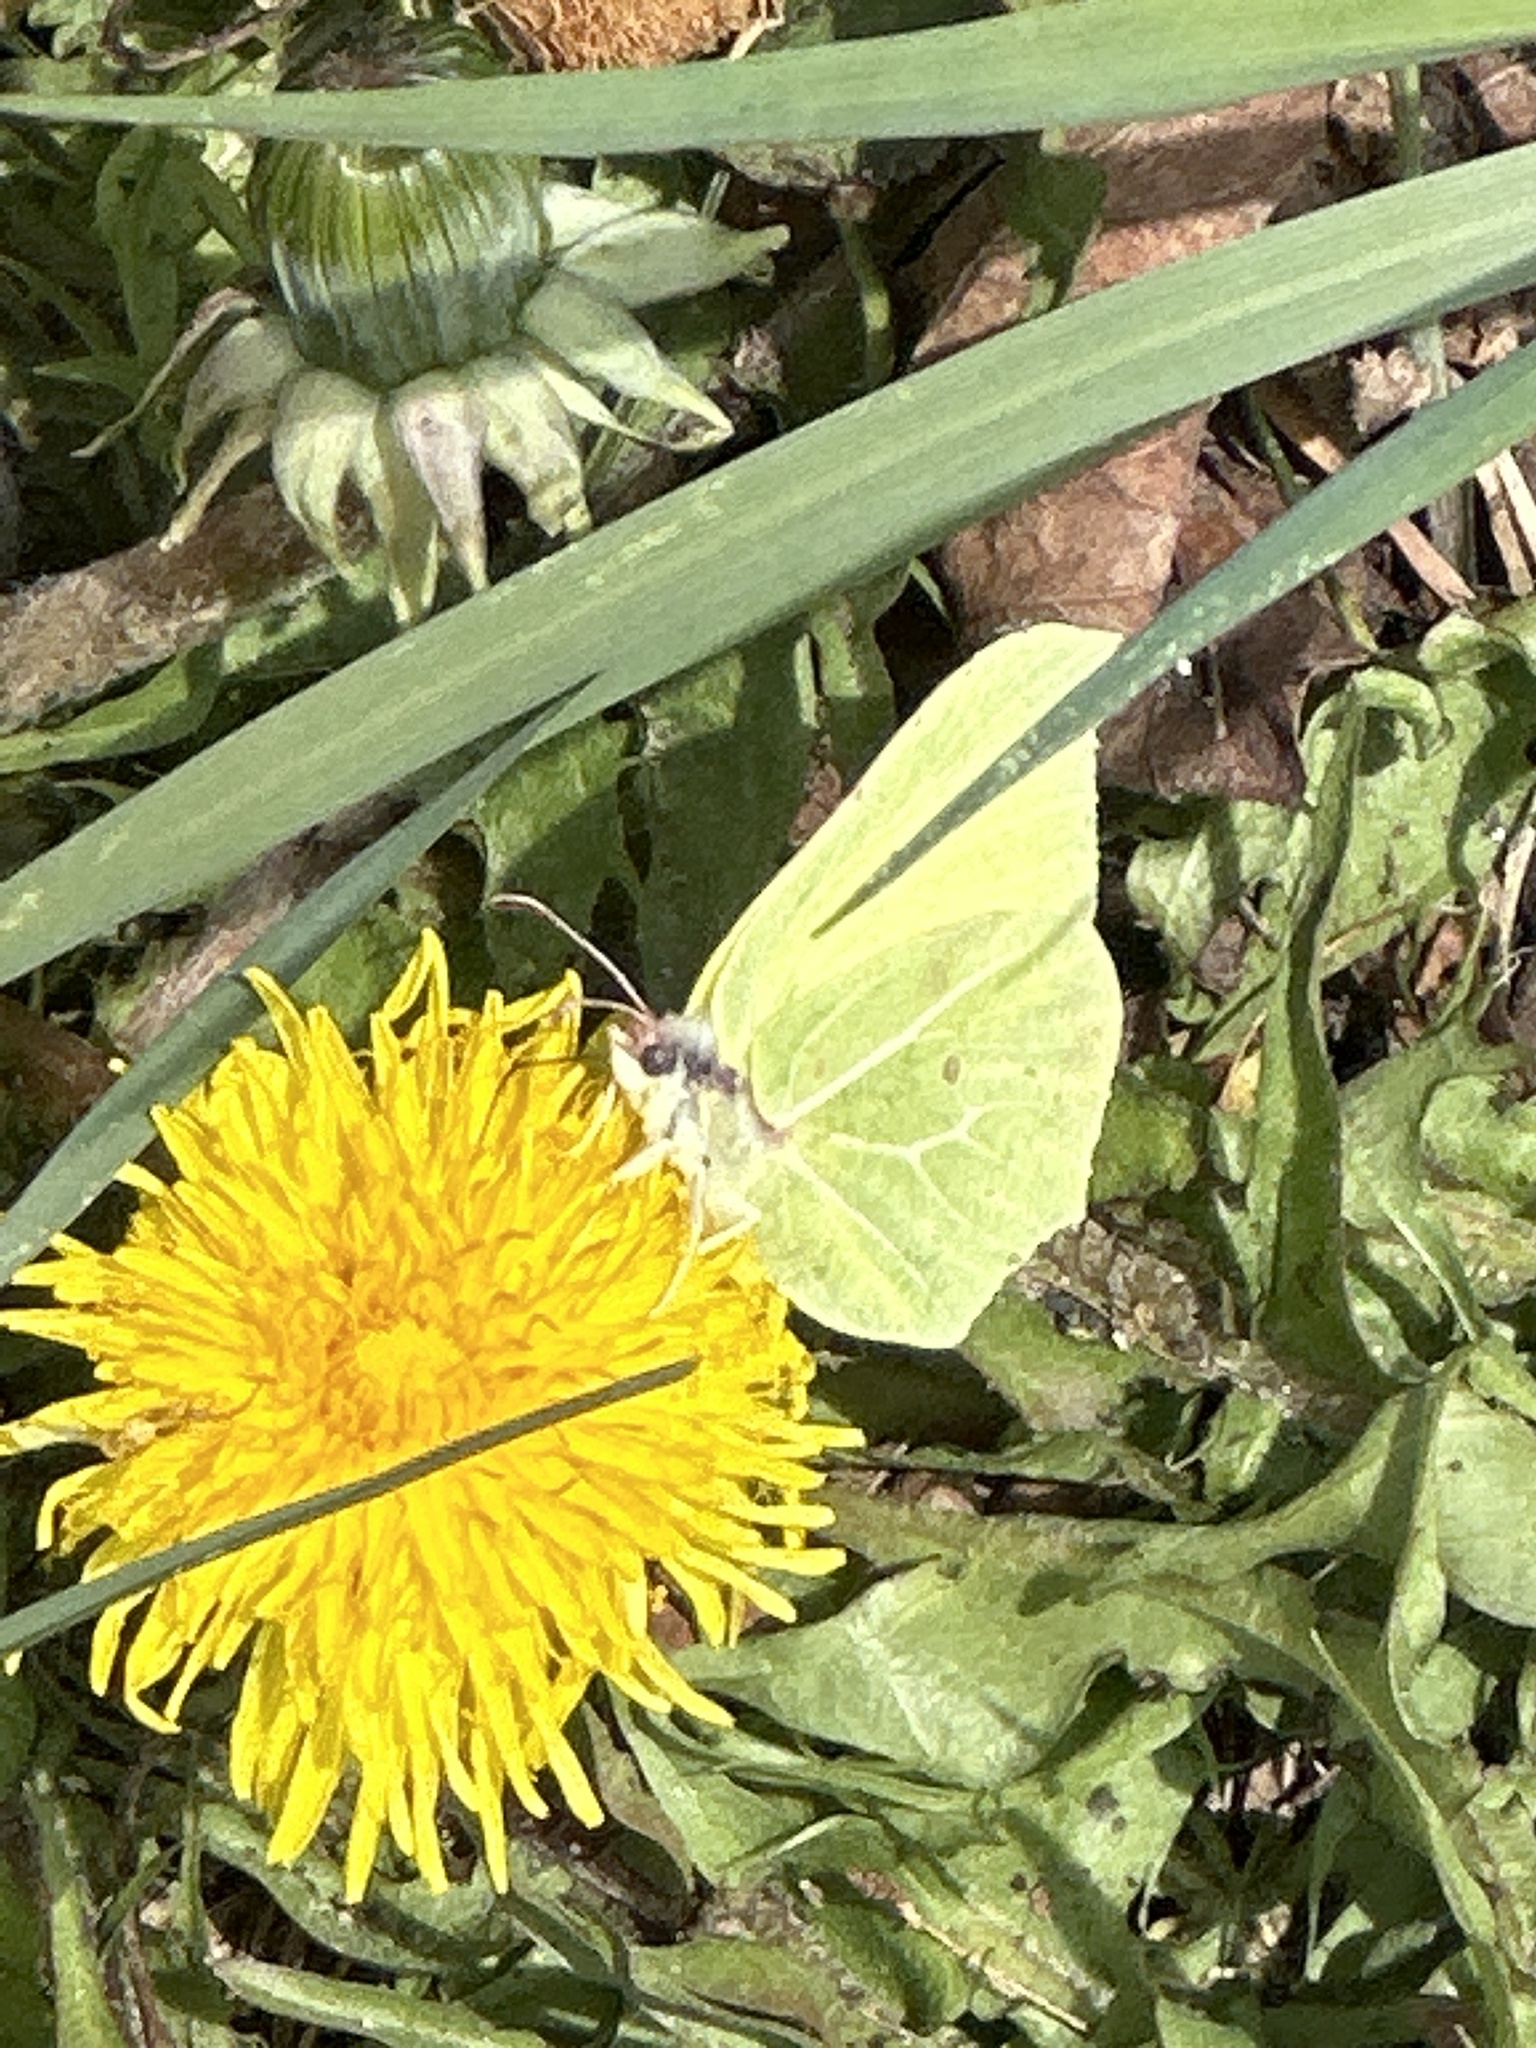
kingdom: Animalia
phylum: Arthropoda
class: Insecta
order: Lepidoptera
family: Pieridae
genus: Gonepteryx
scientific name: Gonepteryx rhamni
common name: Brimstone
